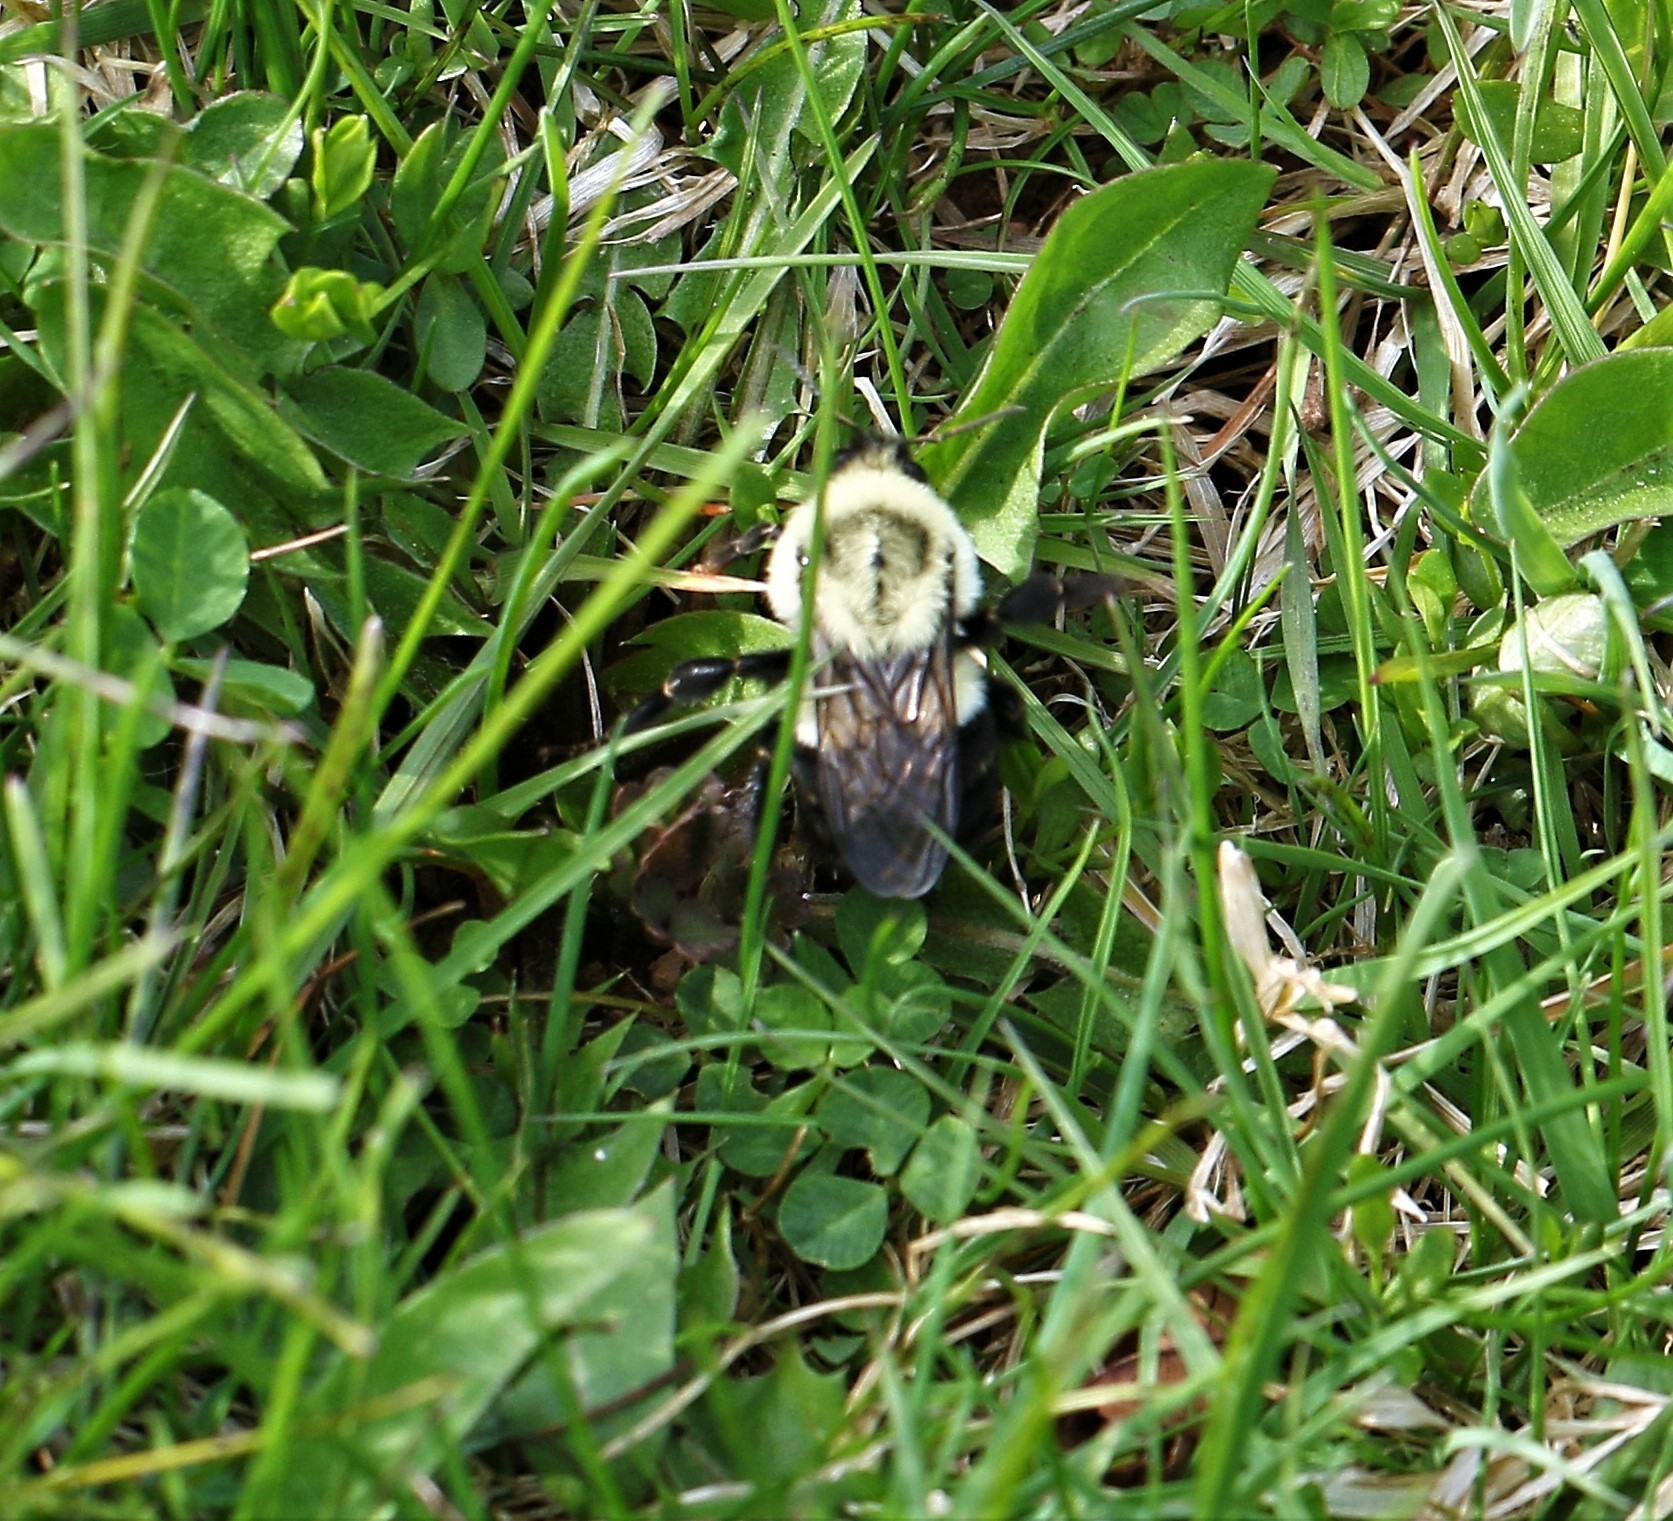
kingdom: Animalia
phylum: Arthropoda
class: Insecta
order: Hymenoptera
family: Apidae
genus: Bombus
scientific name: Bombus impatiens
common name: Common eastern bumble bee
